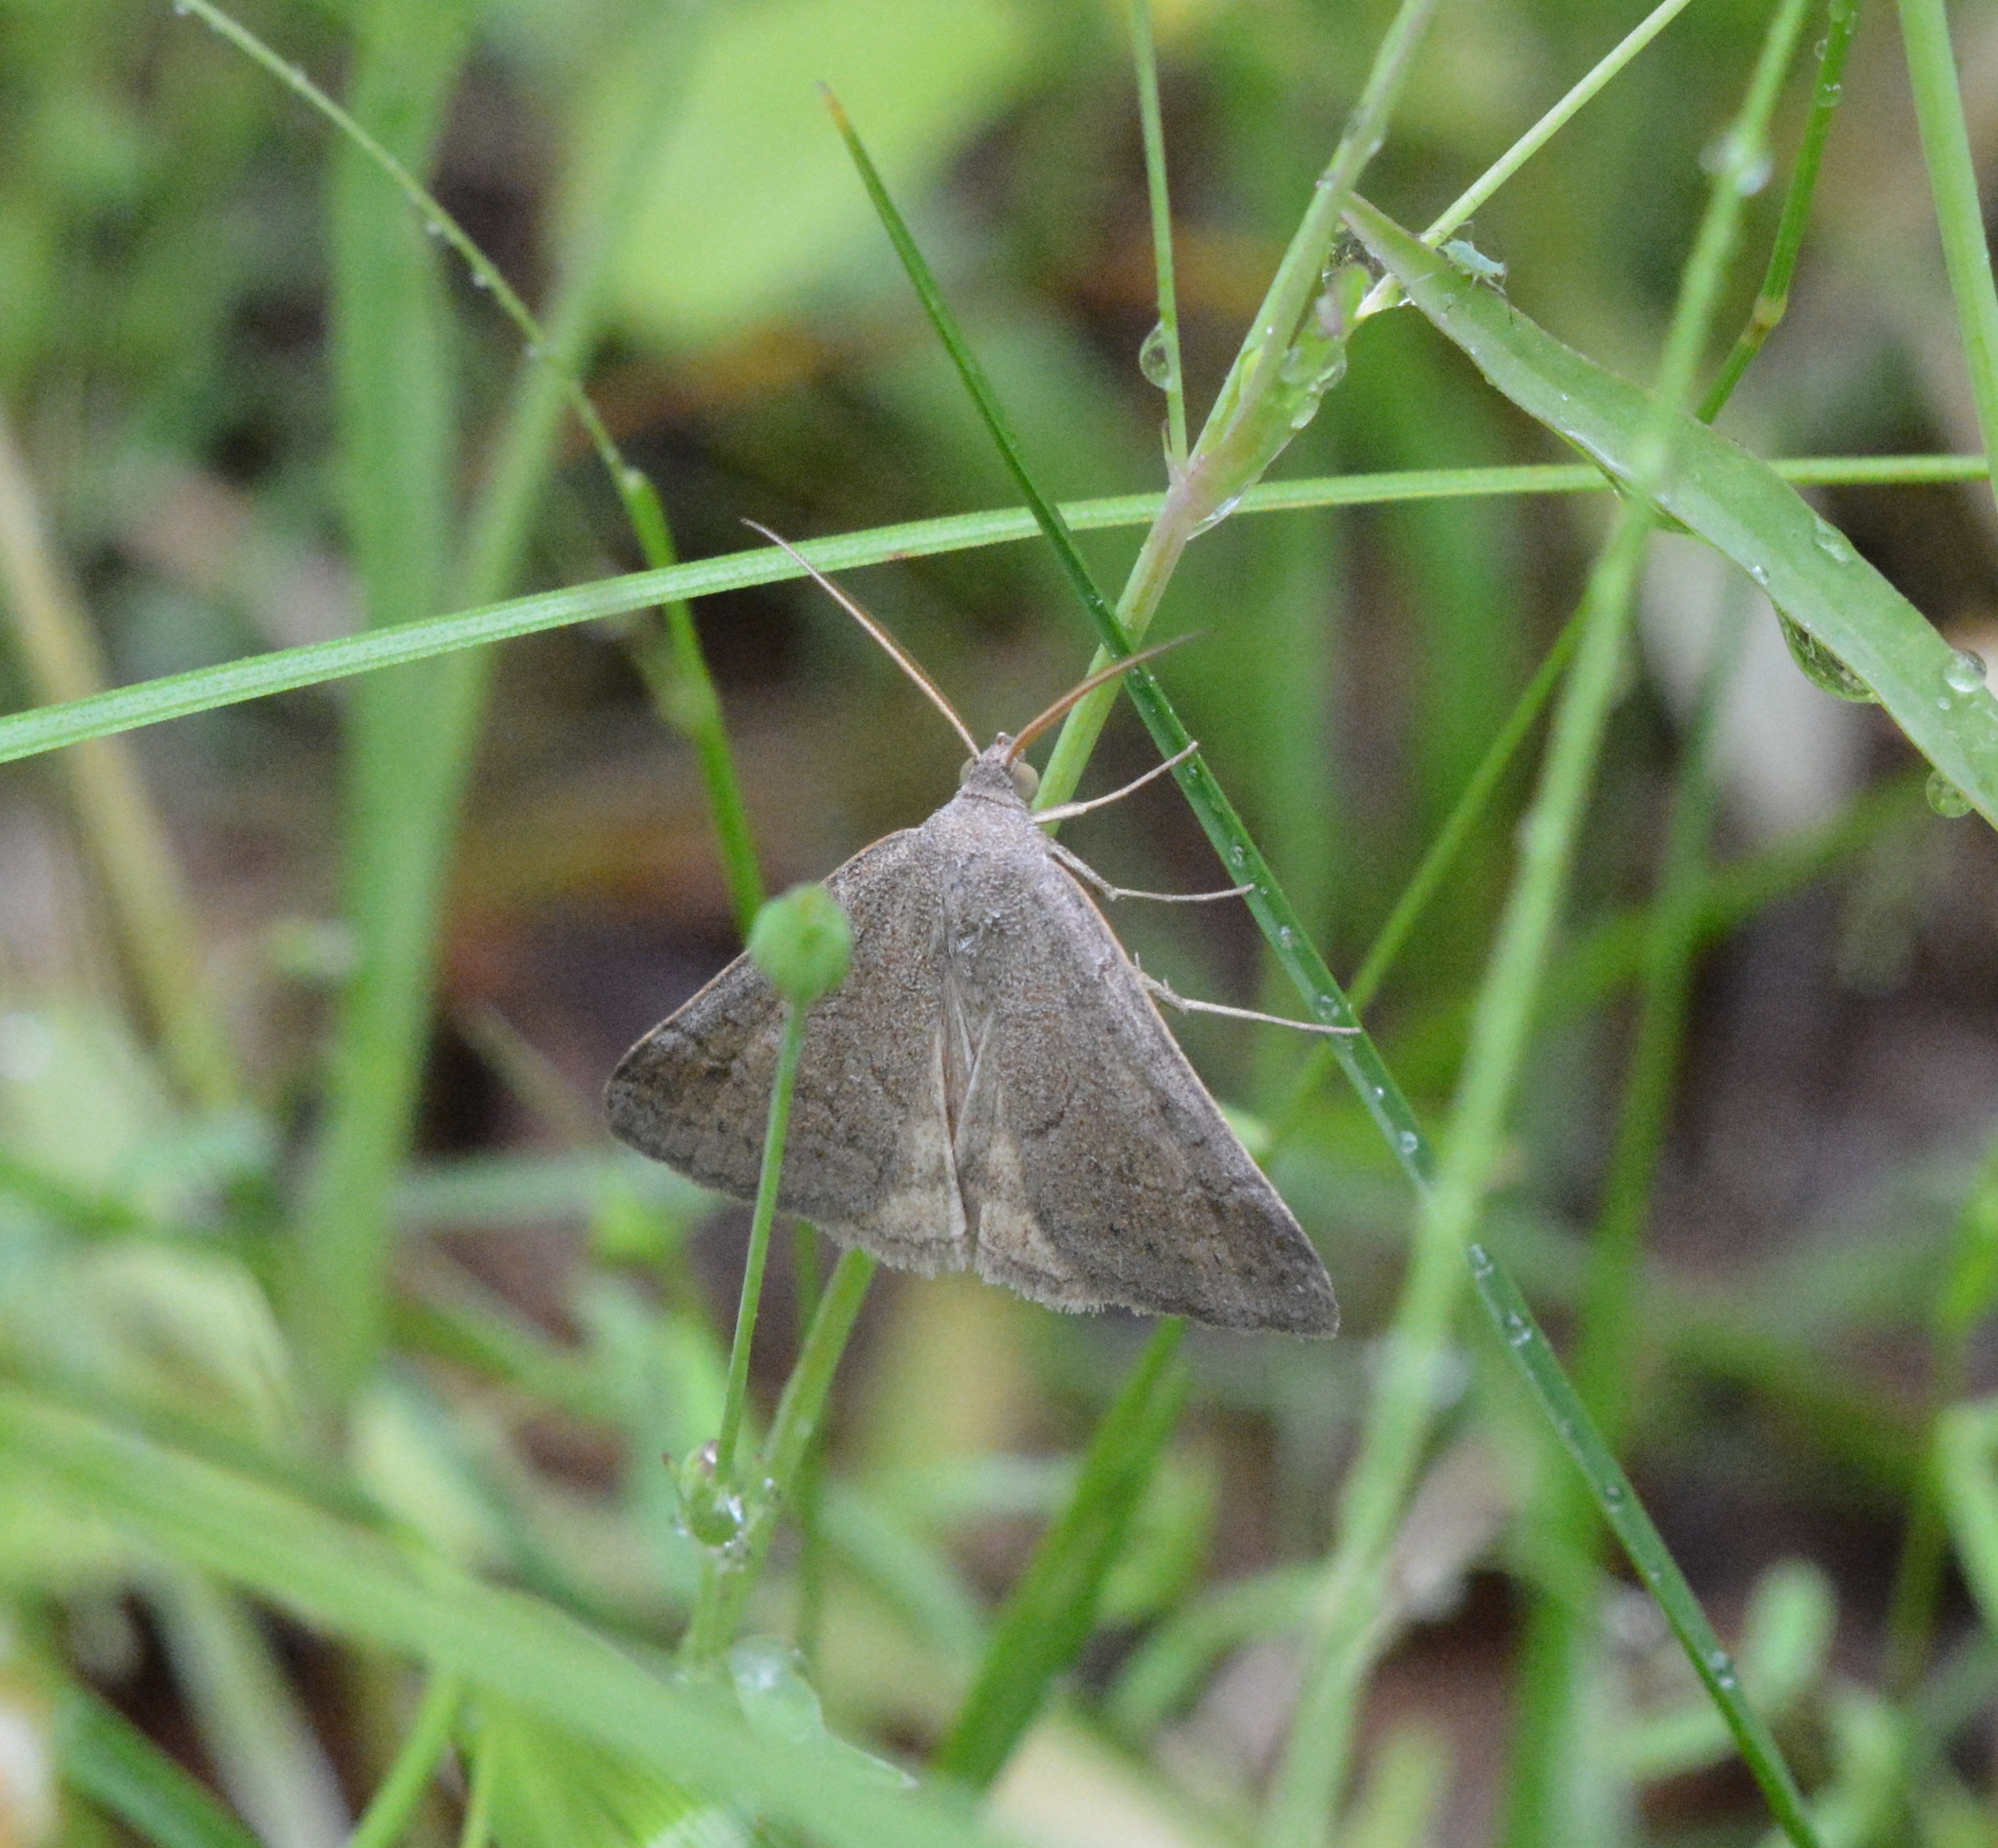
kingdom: Animalia
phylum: Arthropoda
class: Insecta
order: Lepidoptera
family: Erebidae
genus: Caenurgia
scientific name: Caenurgia chloropha
